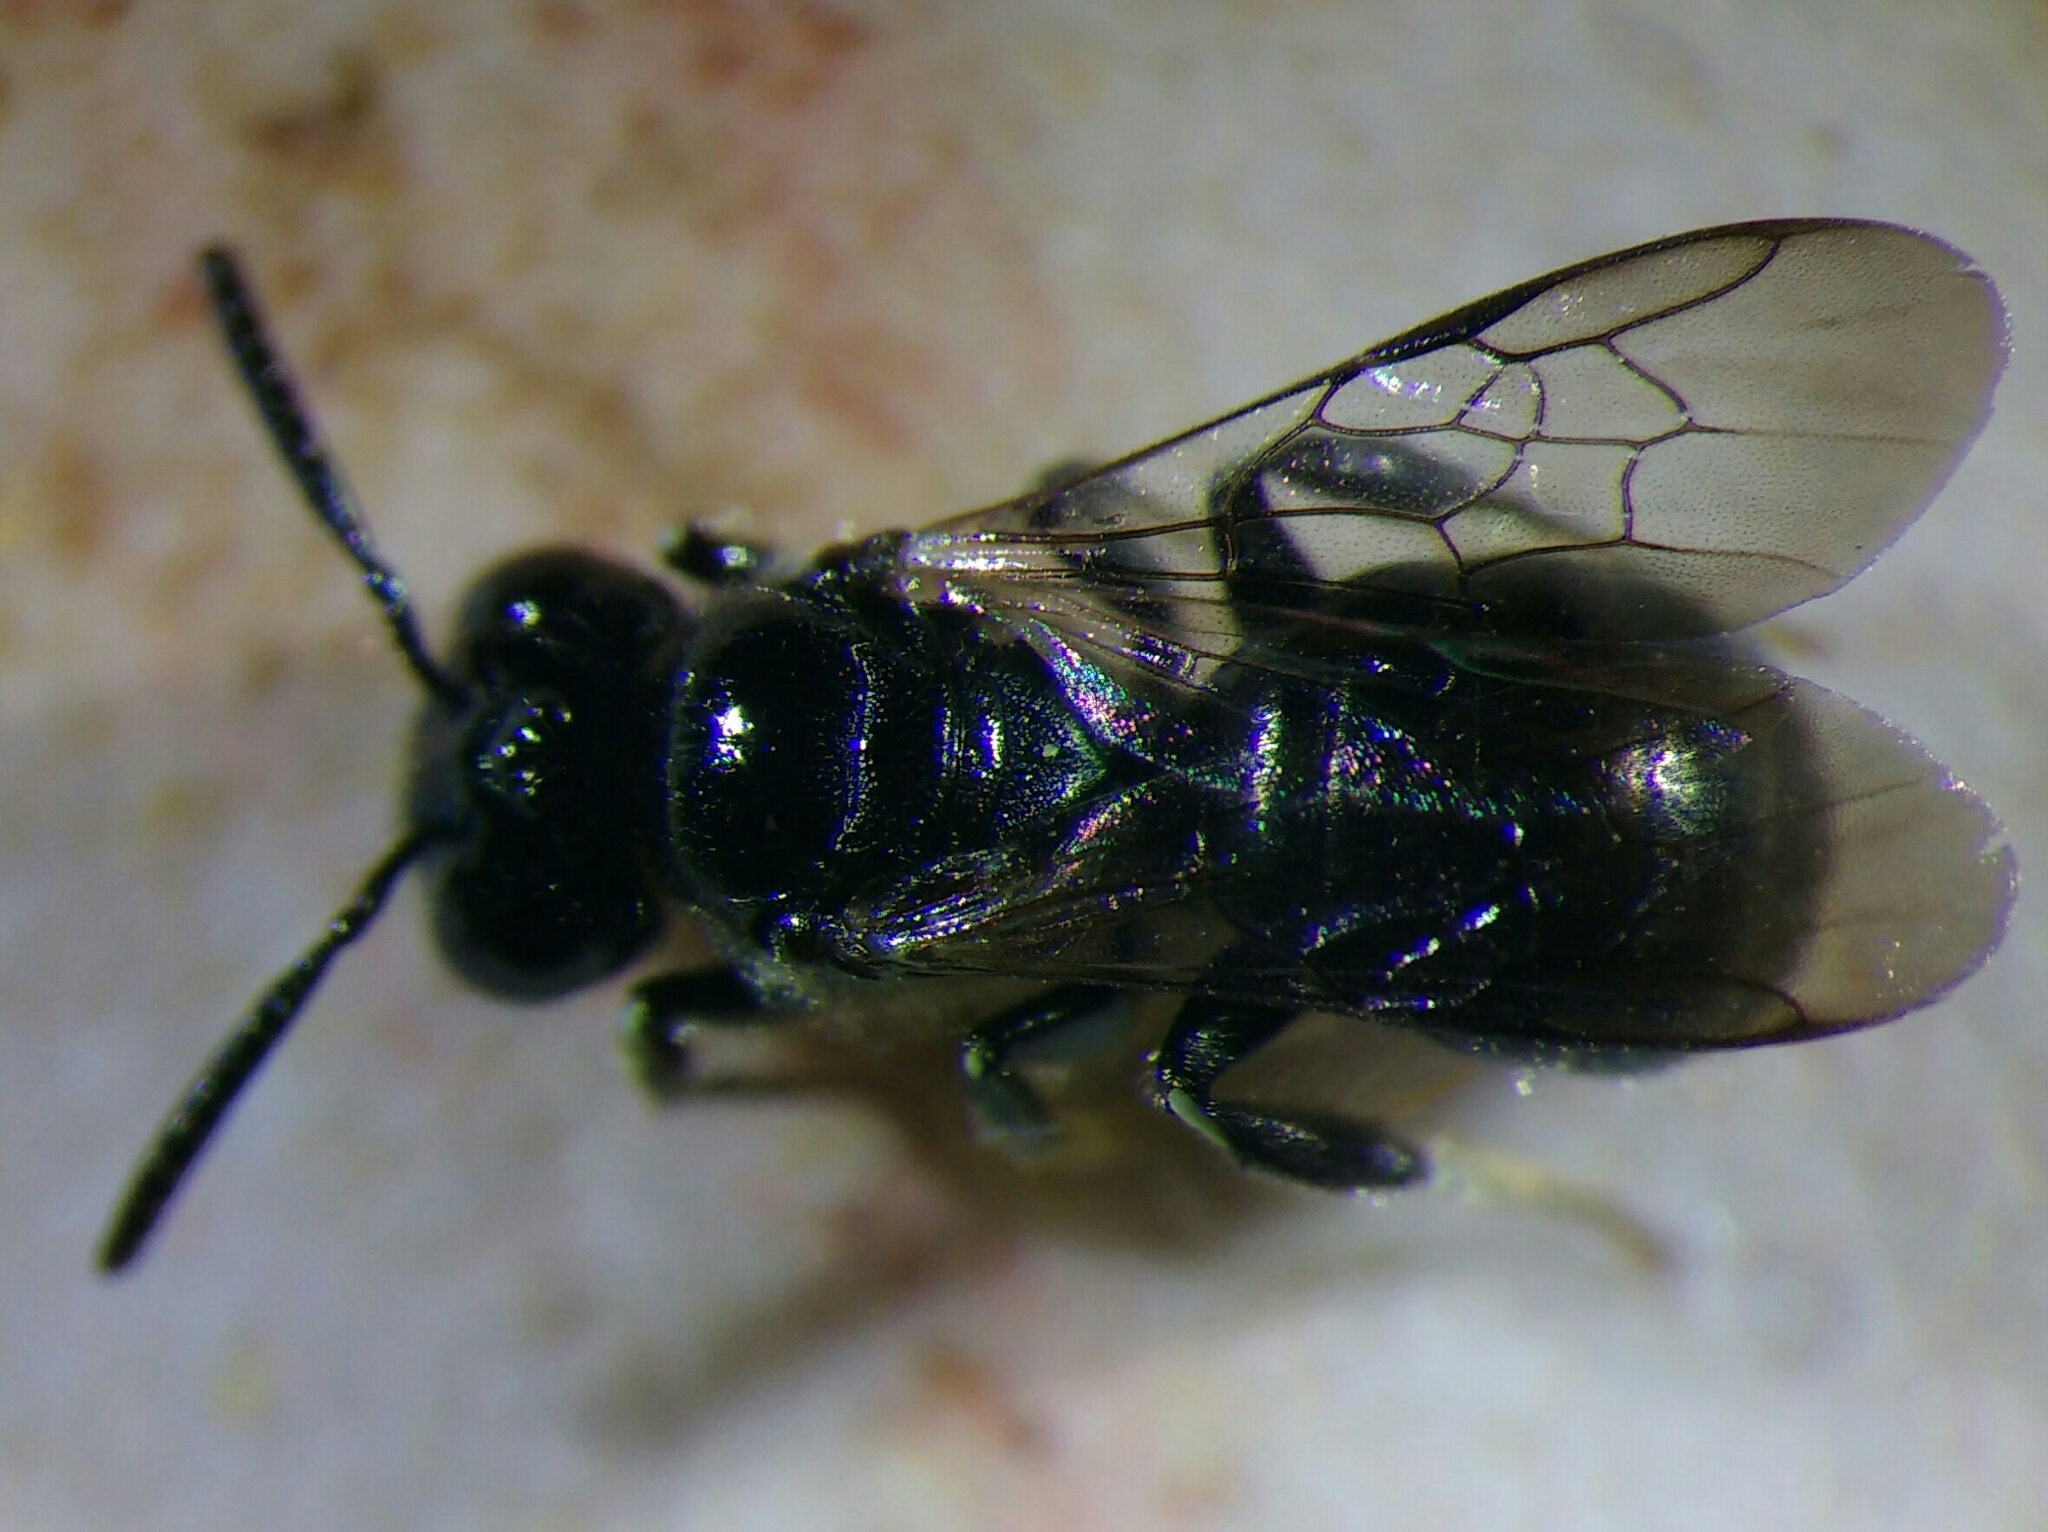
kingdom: Animalia
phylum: Arthropoda
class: Insecta
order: Hymenoptera
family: Apidae
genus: Ceratina
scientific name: Ceratina cucurbitina
